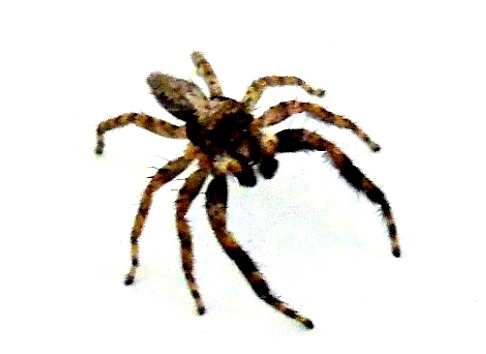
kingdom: Animalia
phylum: Arthropoda
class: Arachnida
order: Araneae
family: Salticidae
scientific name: Salticidae
